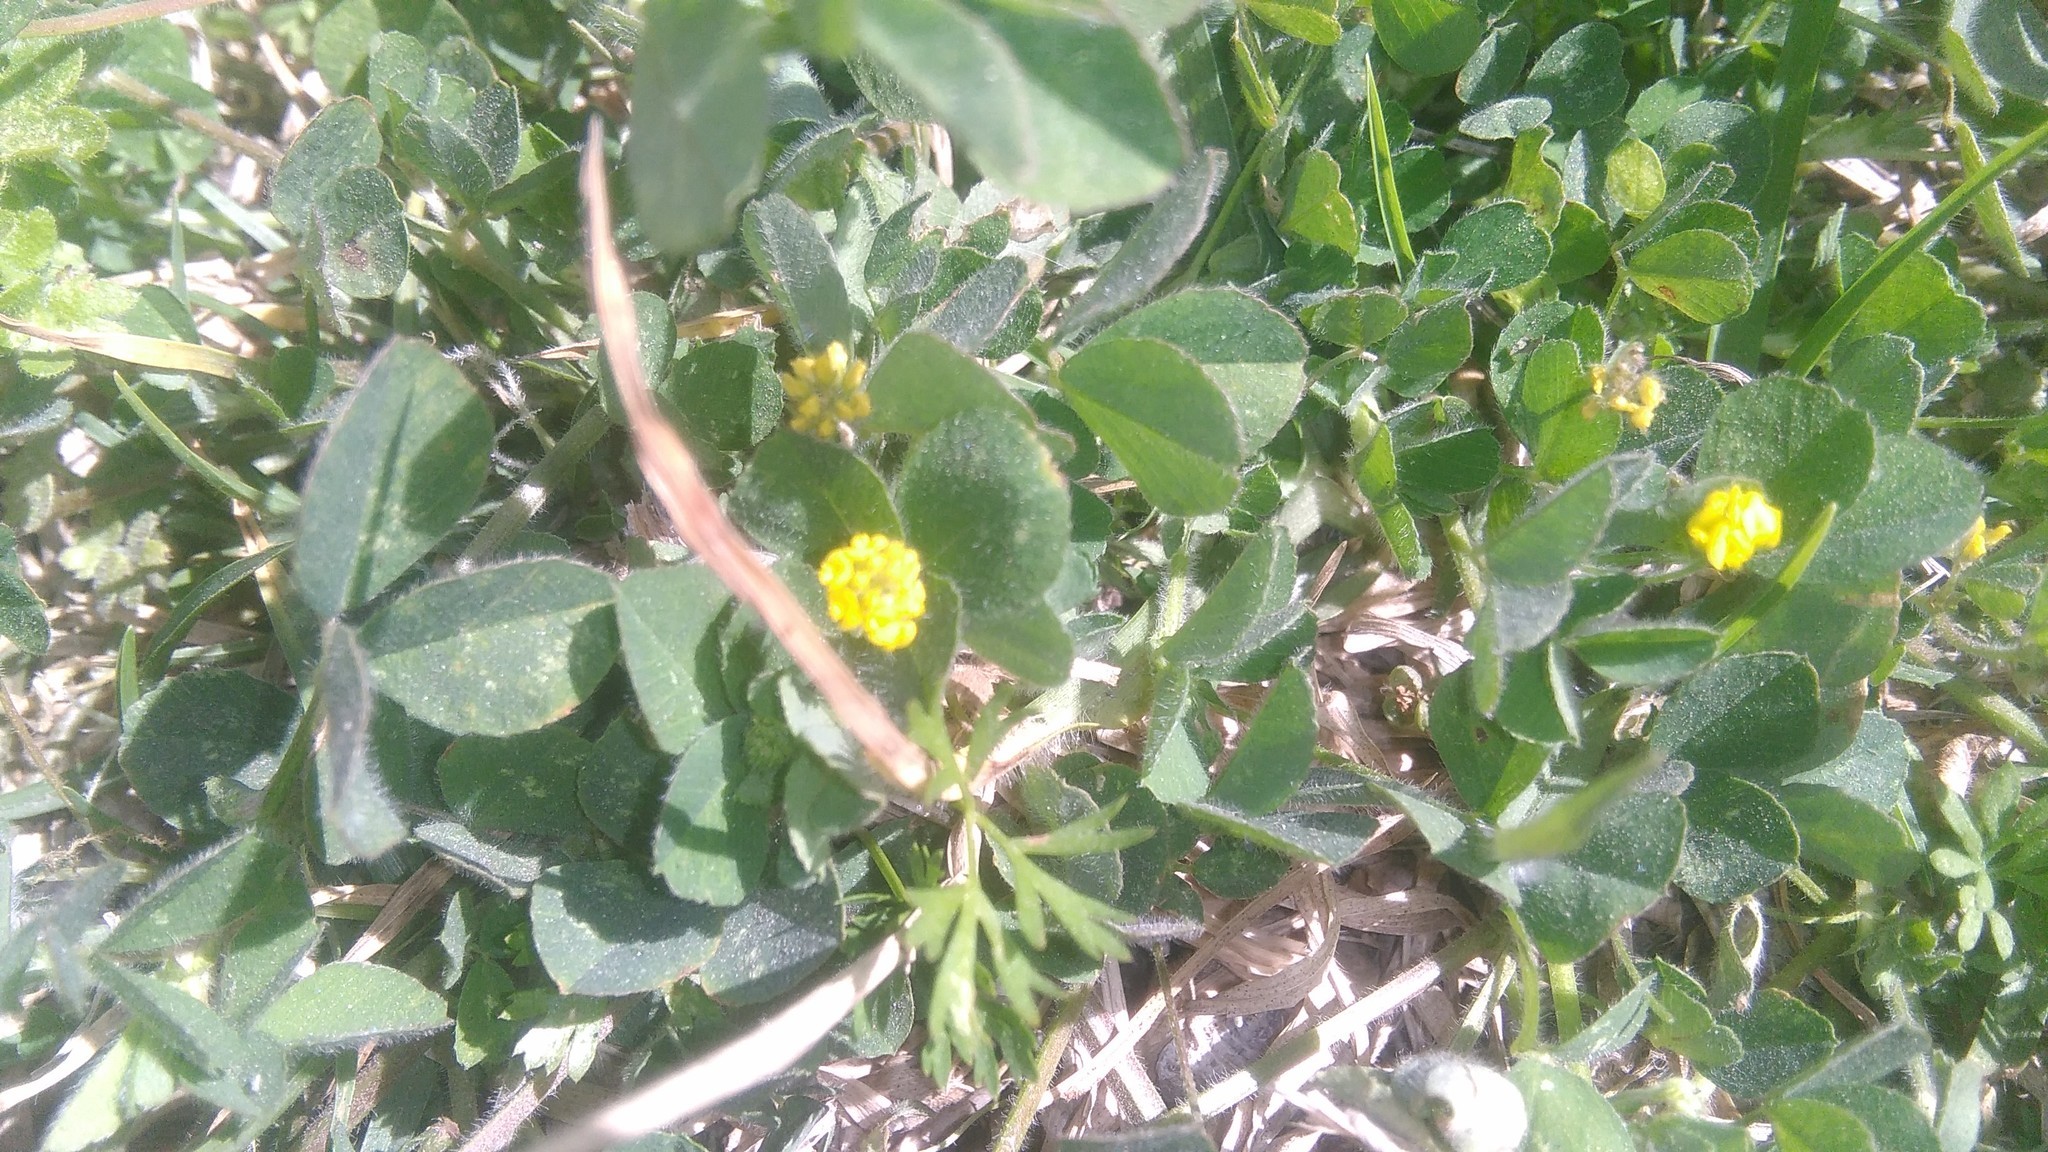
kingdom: Plantae
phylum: Tracheophyta
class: Magnoliopsida
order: Fabales
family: Fabaceae
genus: Medicago
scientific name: Medicago lupulina
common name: Black medick
